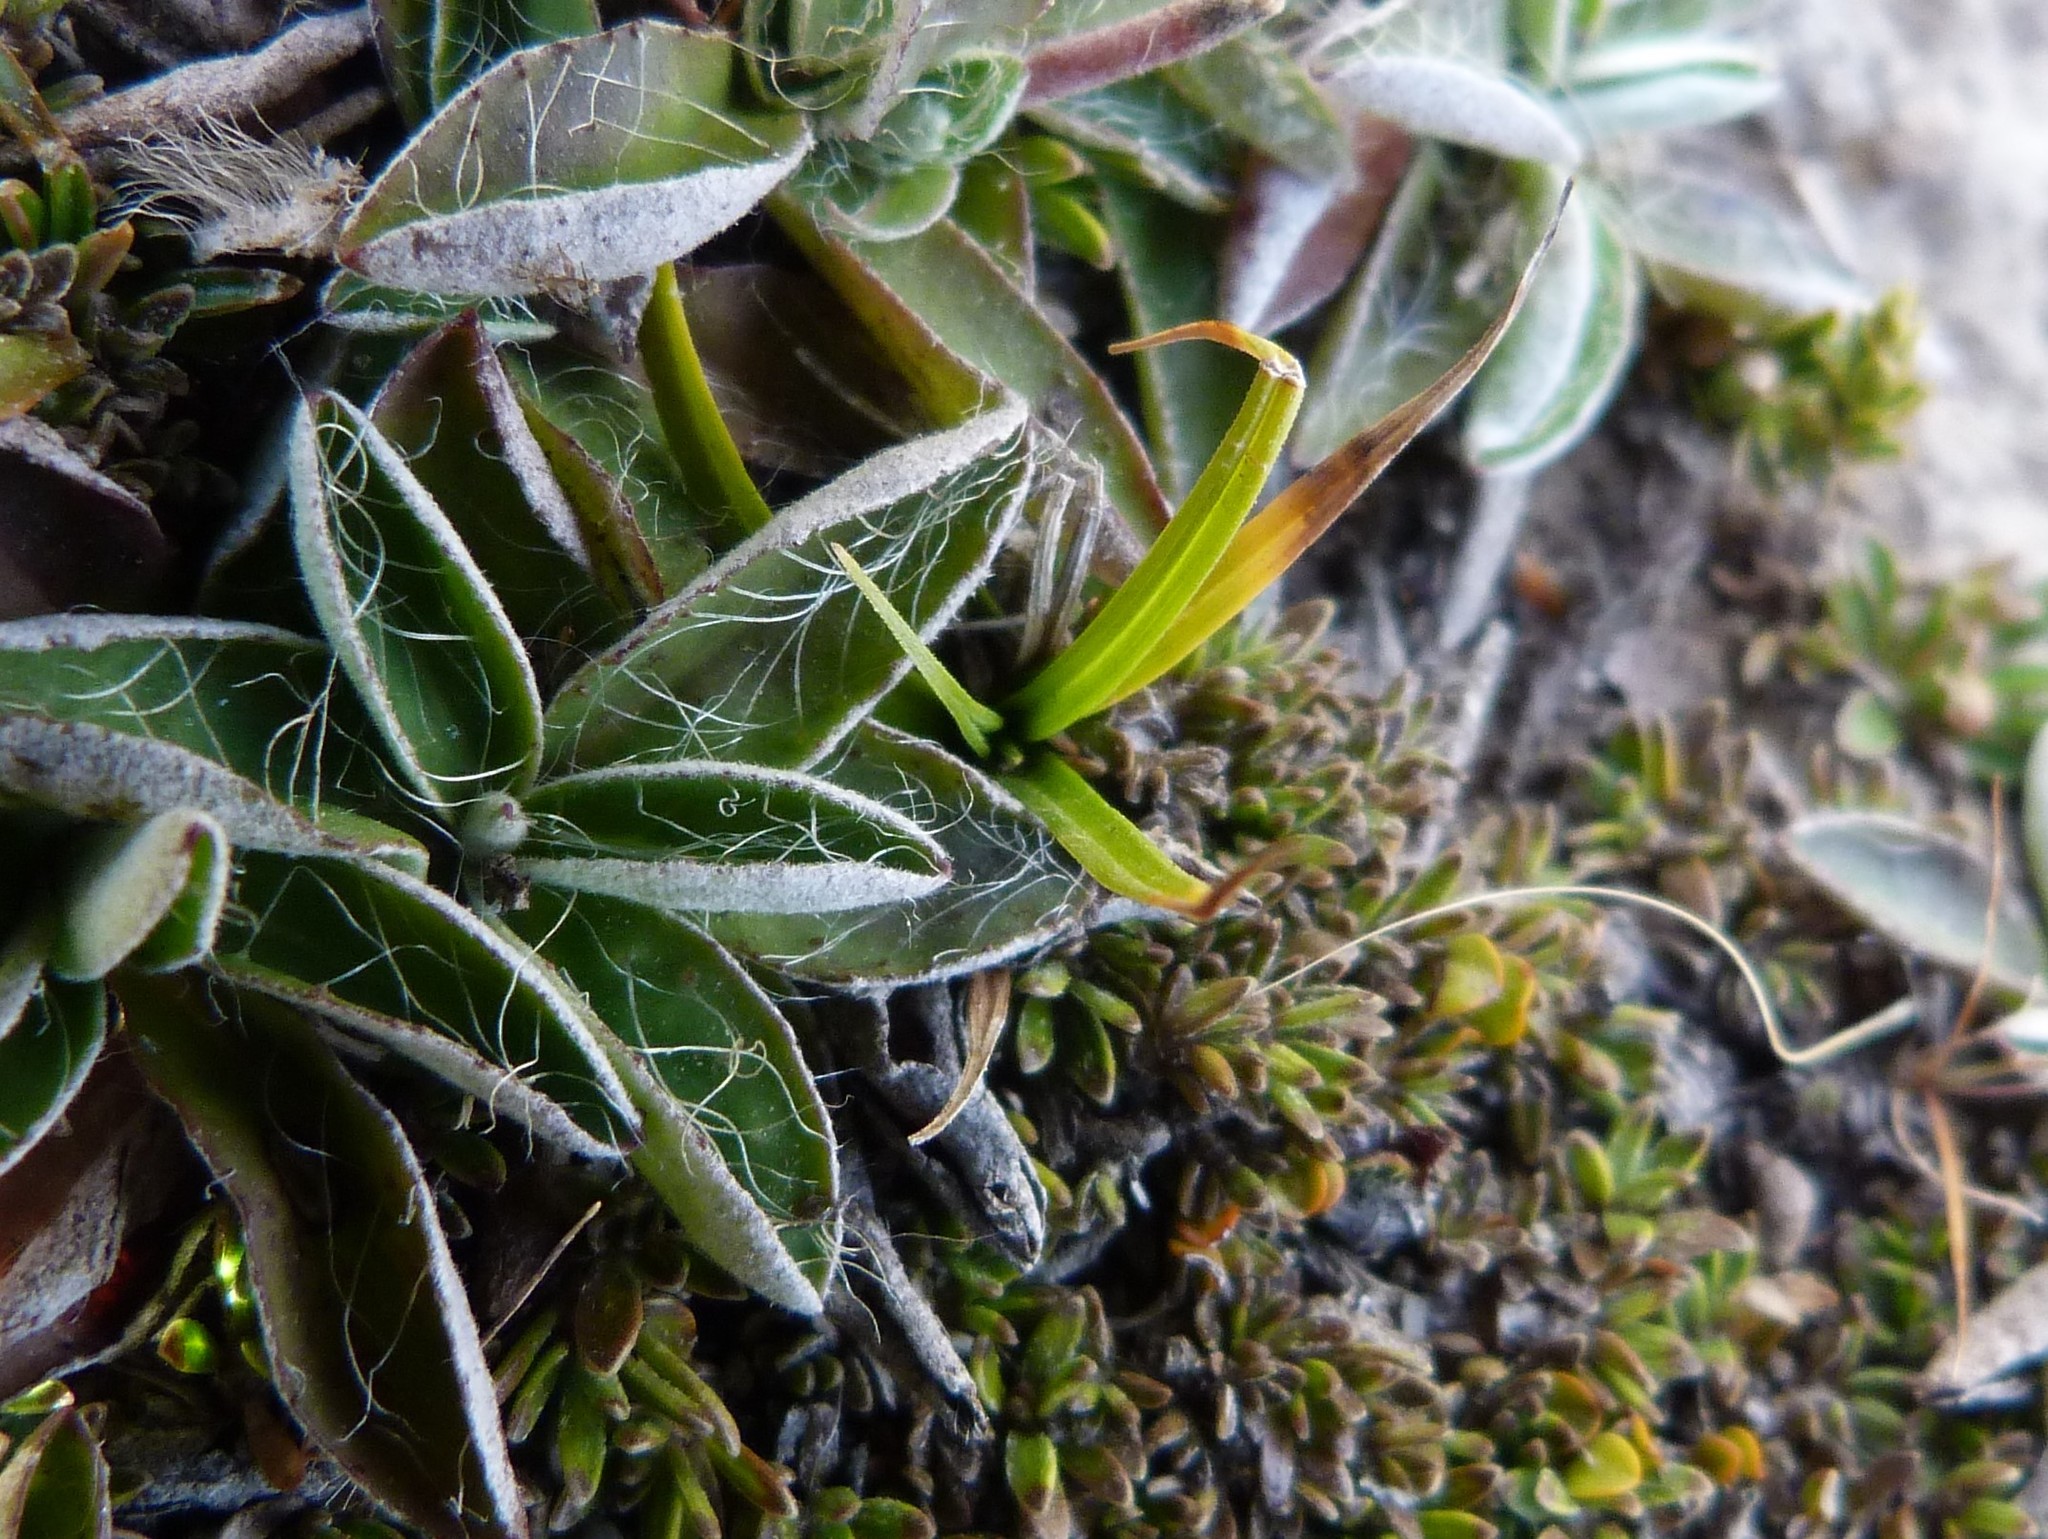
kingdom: Plantae
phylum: Tracheophyta
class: Liliopsida
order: Poales
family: Cyperaceae
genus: Carex
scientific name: Carex breviculmis
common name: Asian shortstem sedge
